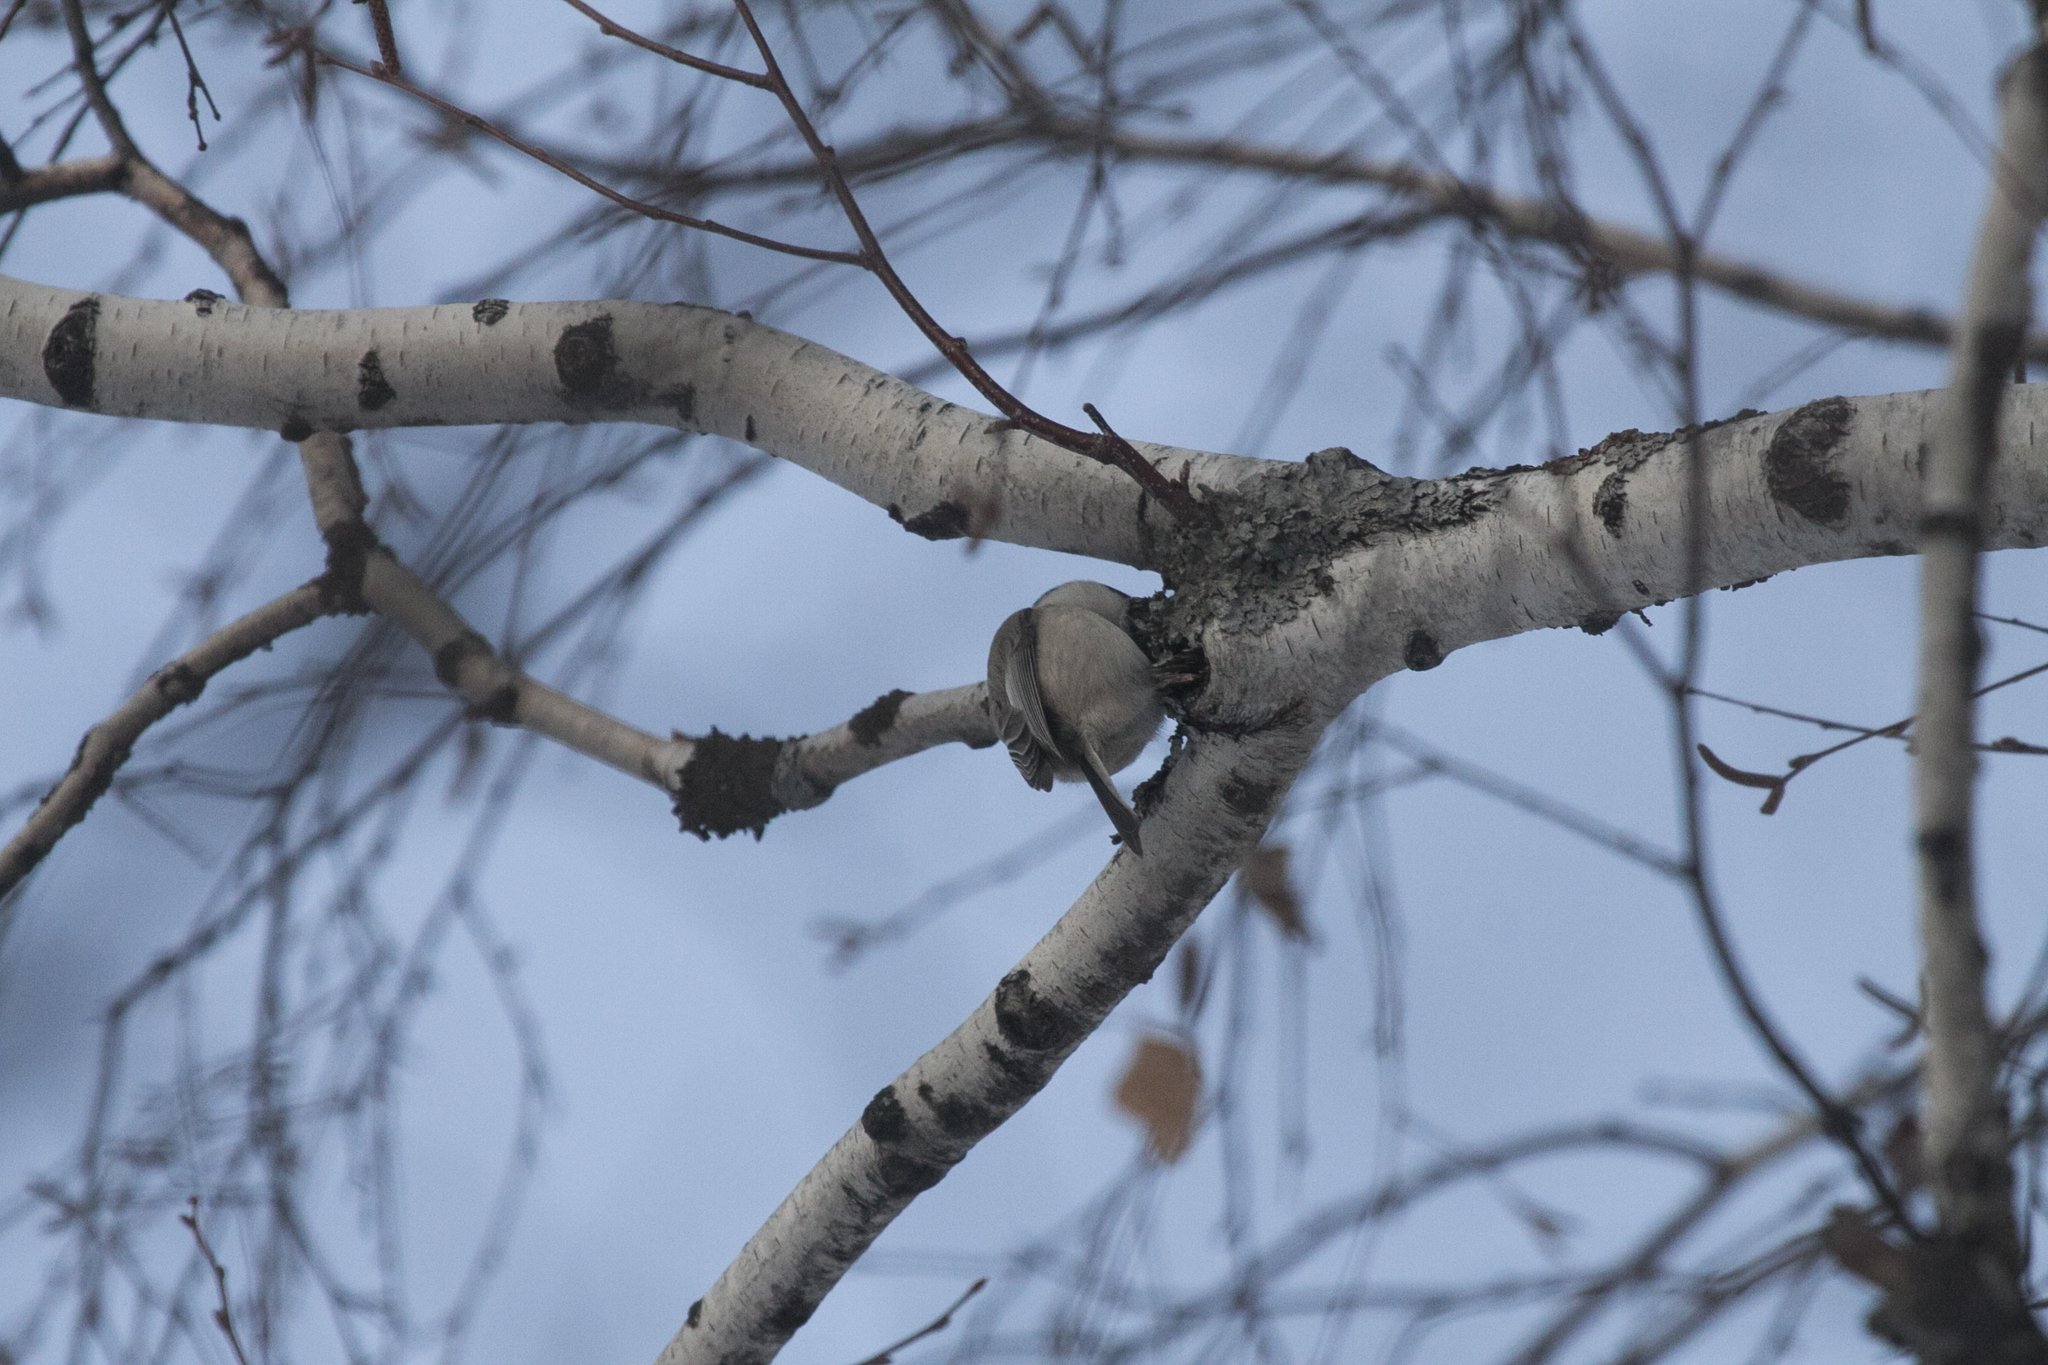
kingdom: Animalia
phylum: Chordata
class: Aves
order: Passeriformes
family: Paridae
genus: Poecile
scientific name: Poecile montanus
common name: Willow tit
